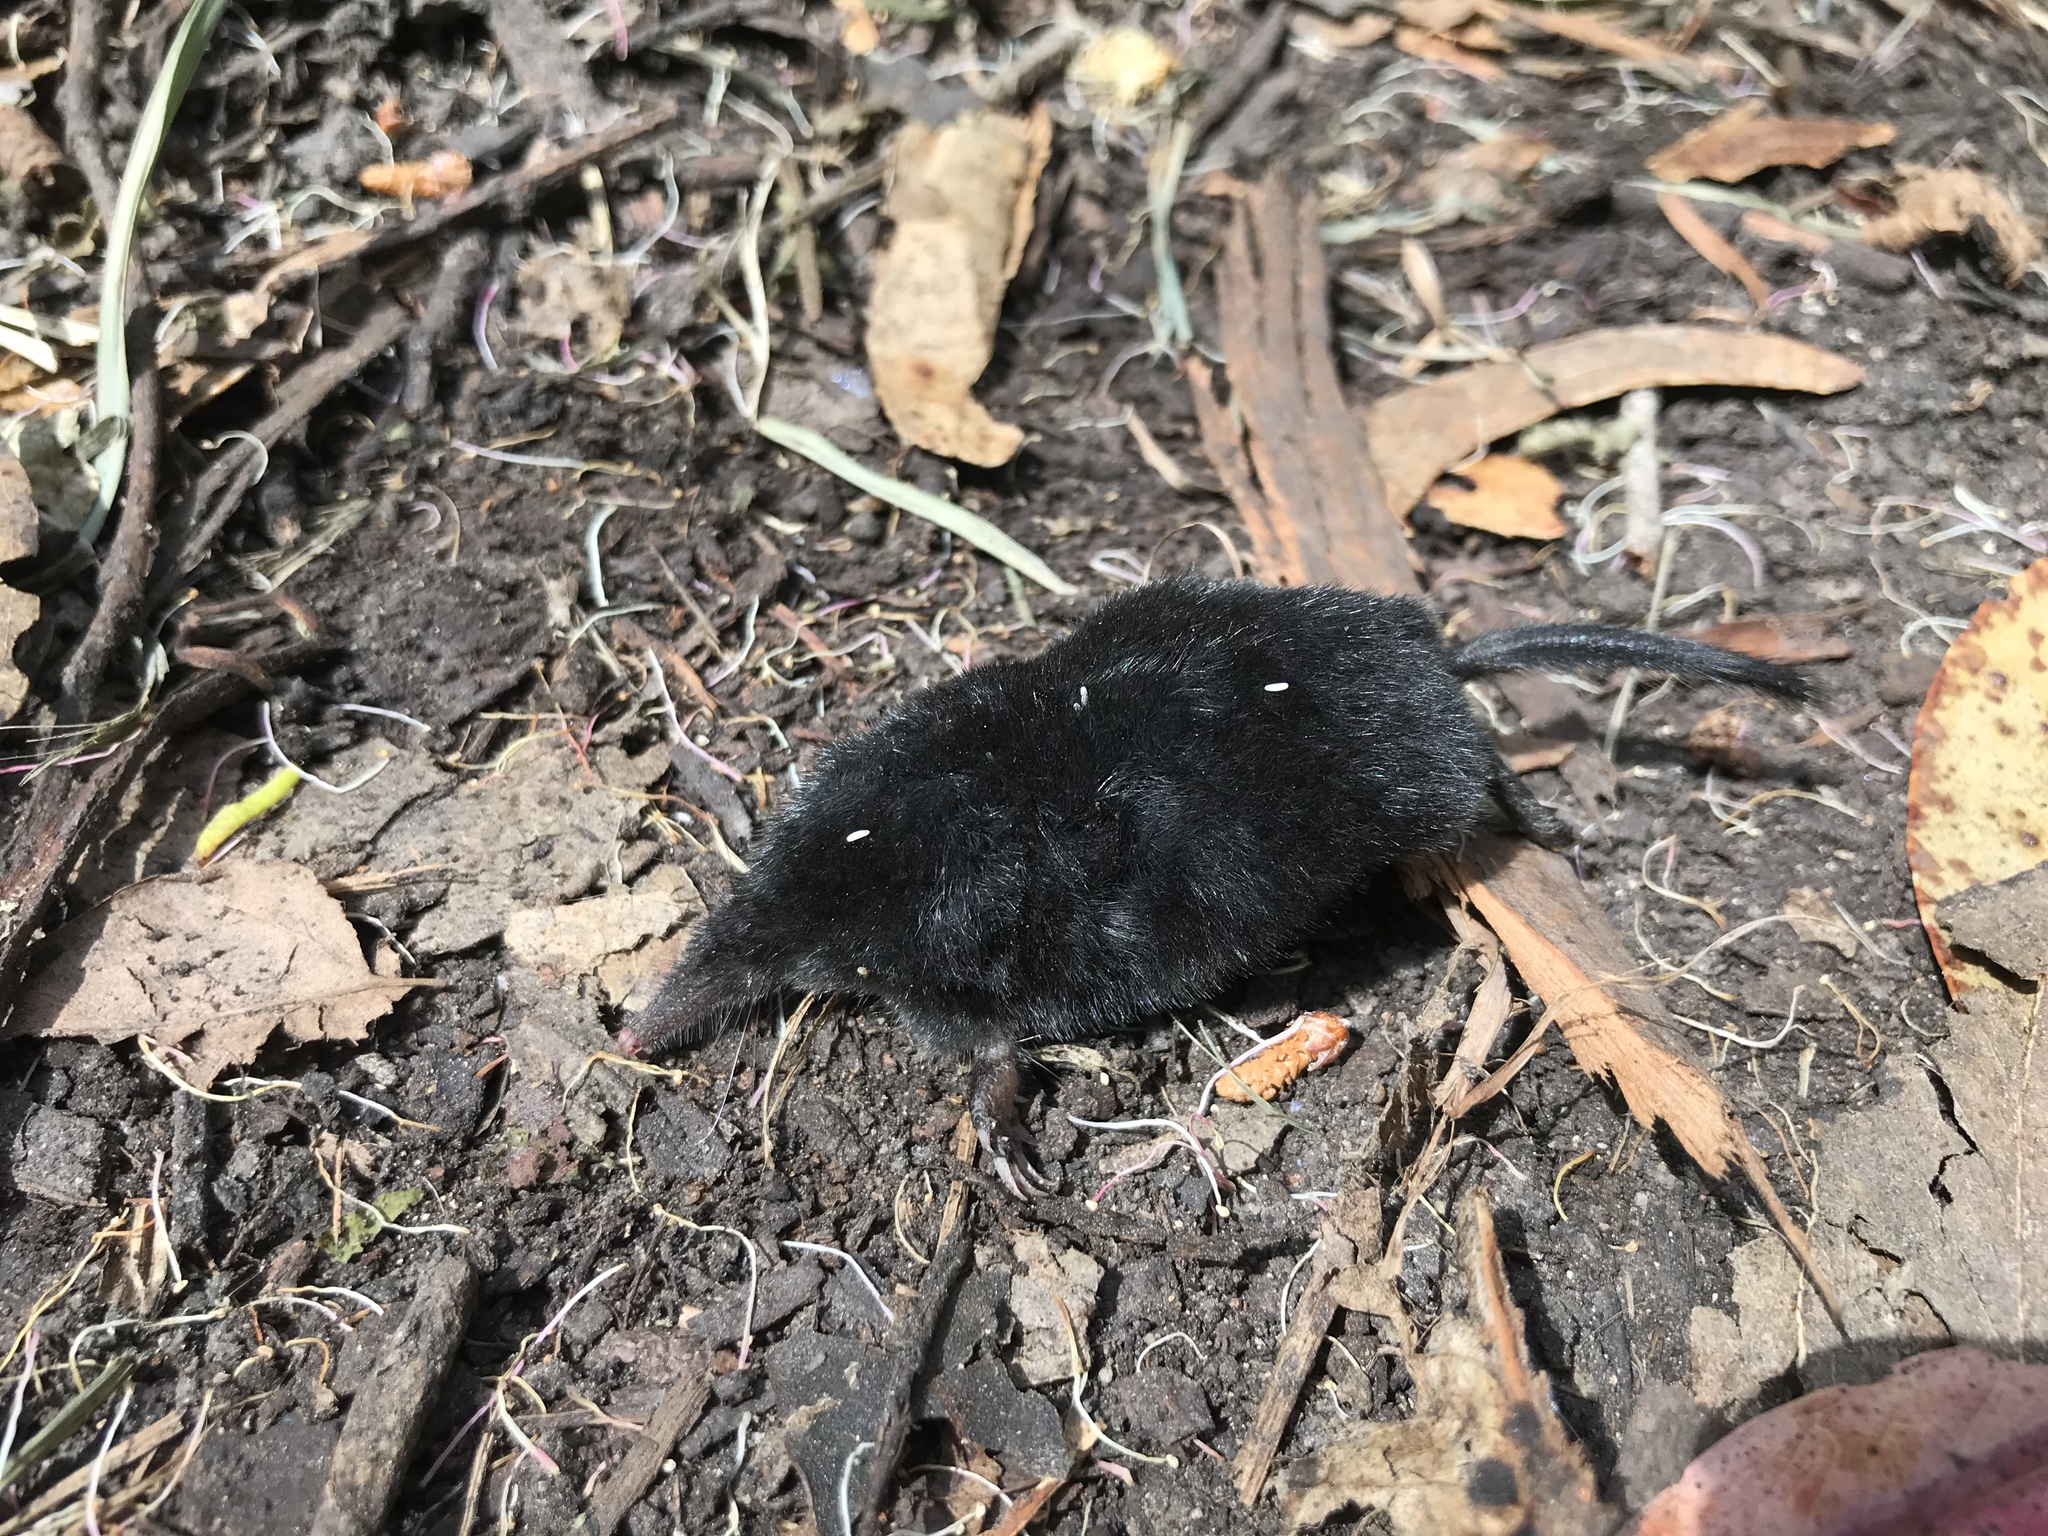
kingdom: Animalia
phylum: Chordata
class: Mammalia
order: Soricomorpha
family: Talpidae
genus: Neurotrichus
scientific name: Neurotrichus gibbsii
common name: American shrew mole
